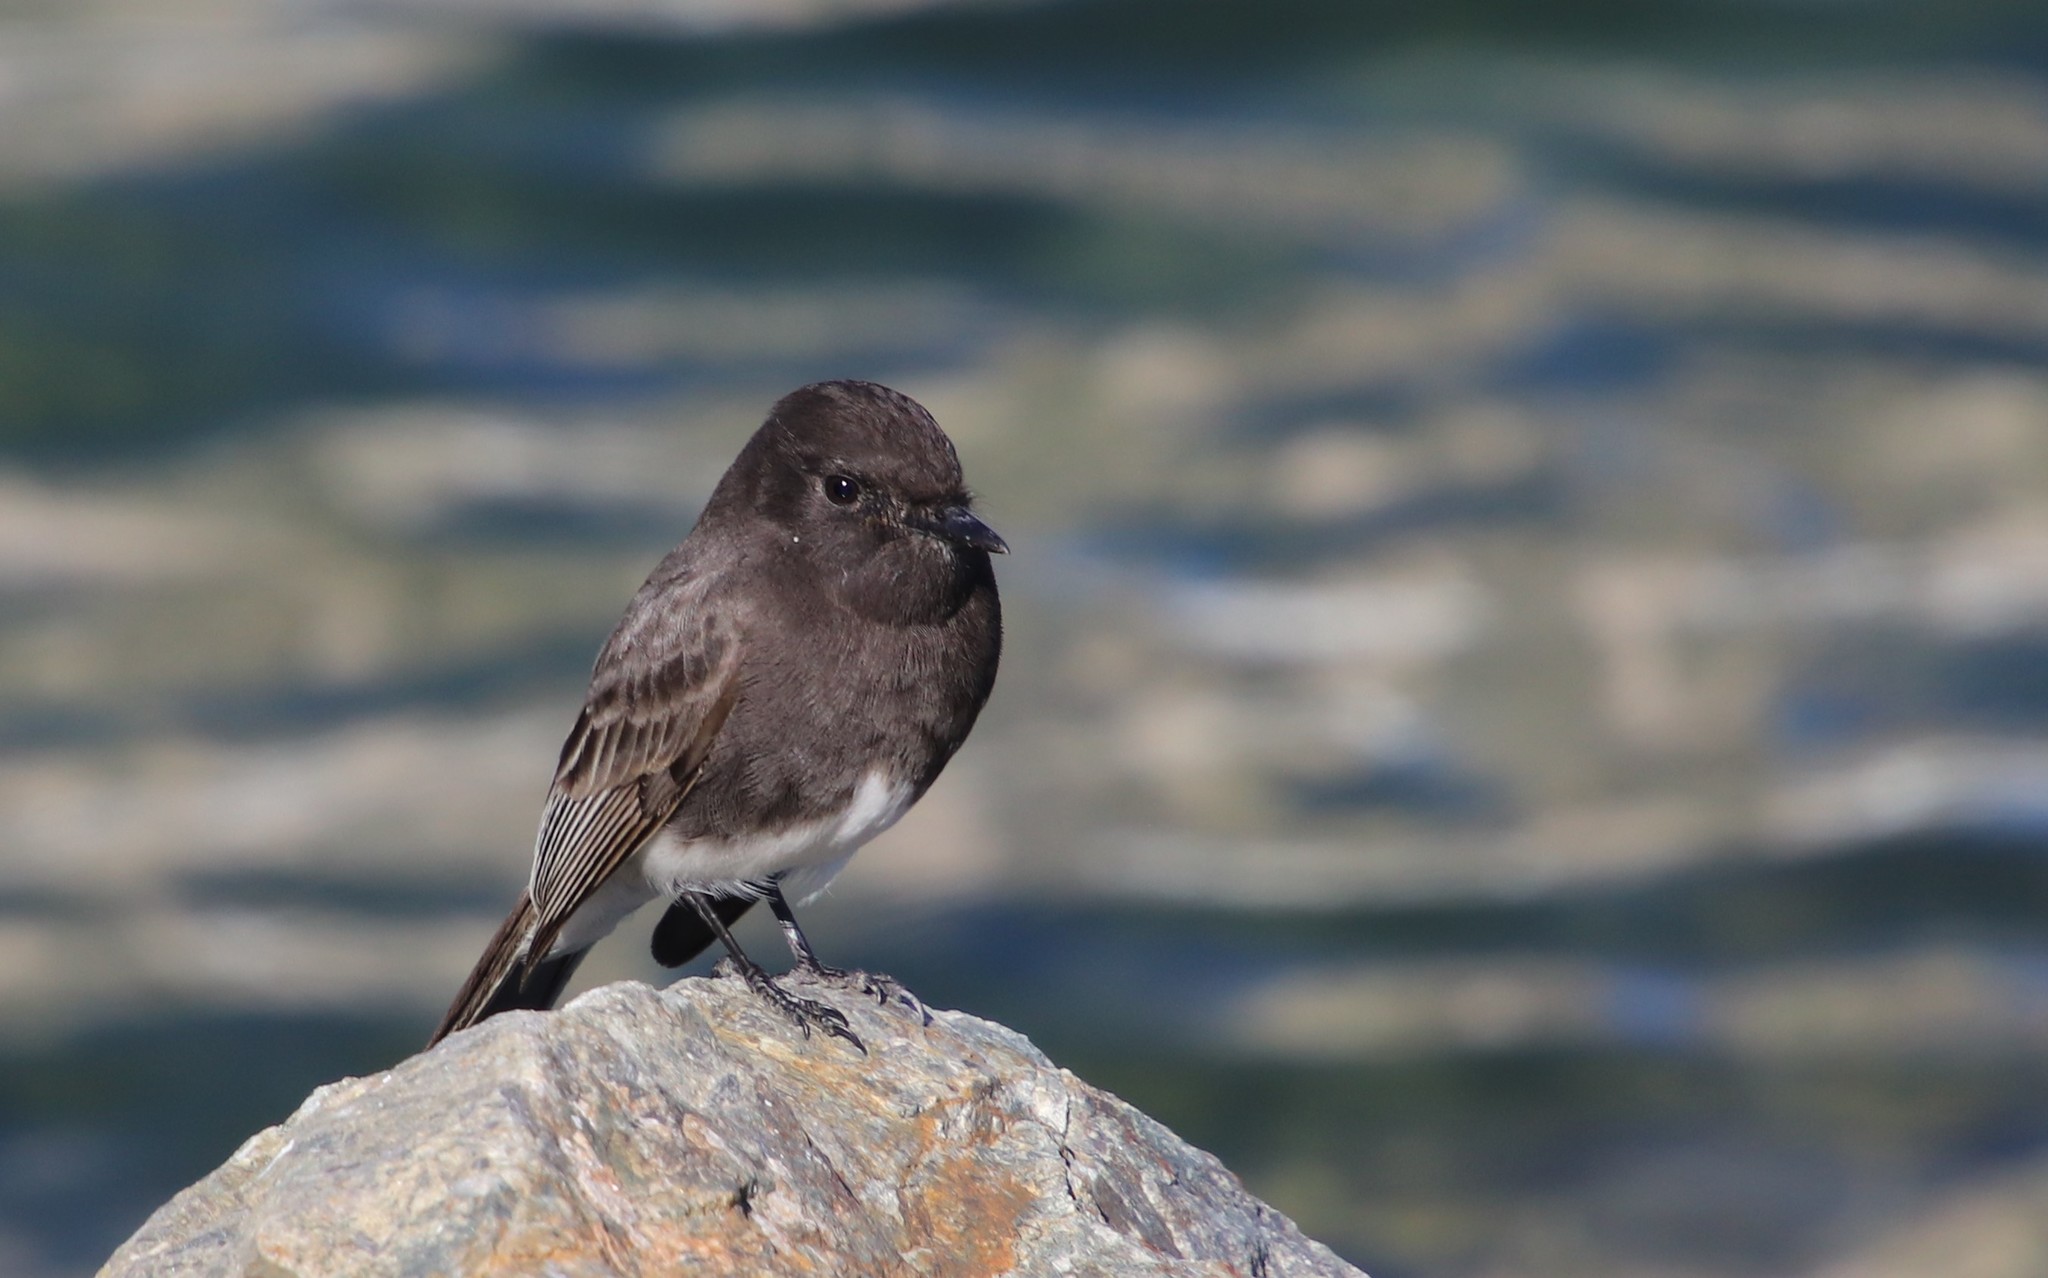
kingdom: Animalia
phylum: Chordata
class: Aves
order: Passeriformes
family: Tyrannidae
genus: Sayornis
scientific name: Sayornis nigricans
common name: Black phoebe
